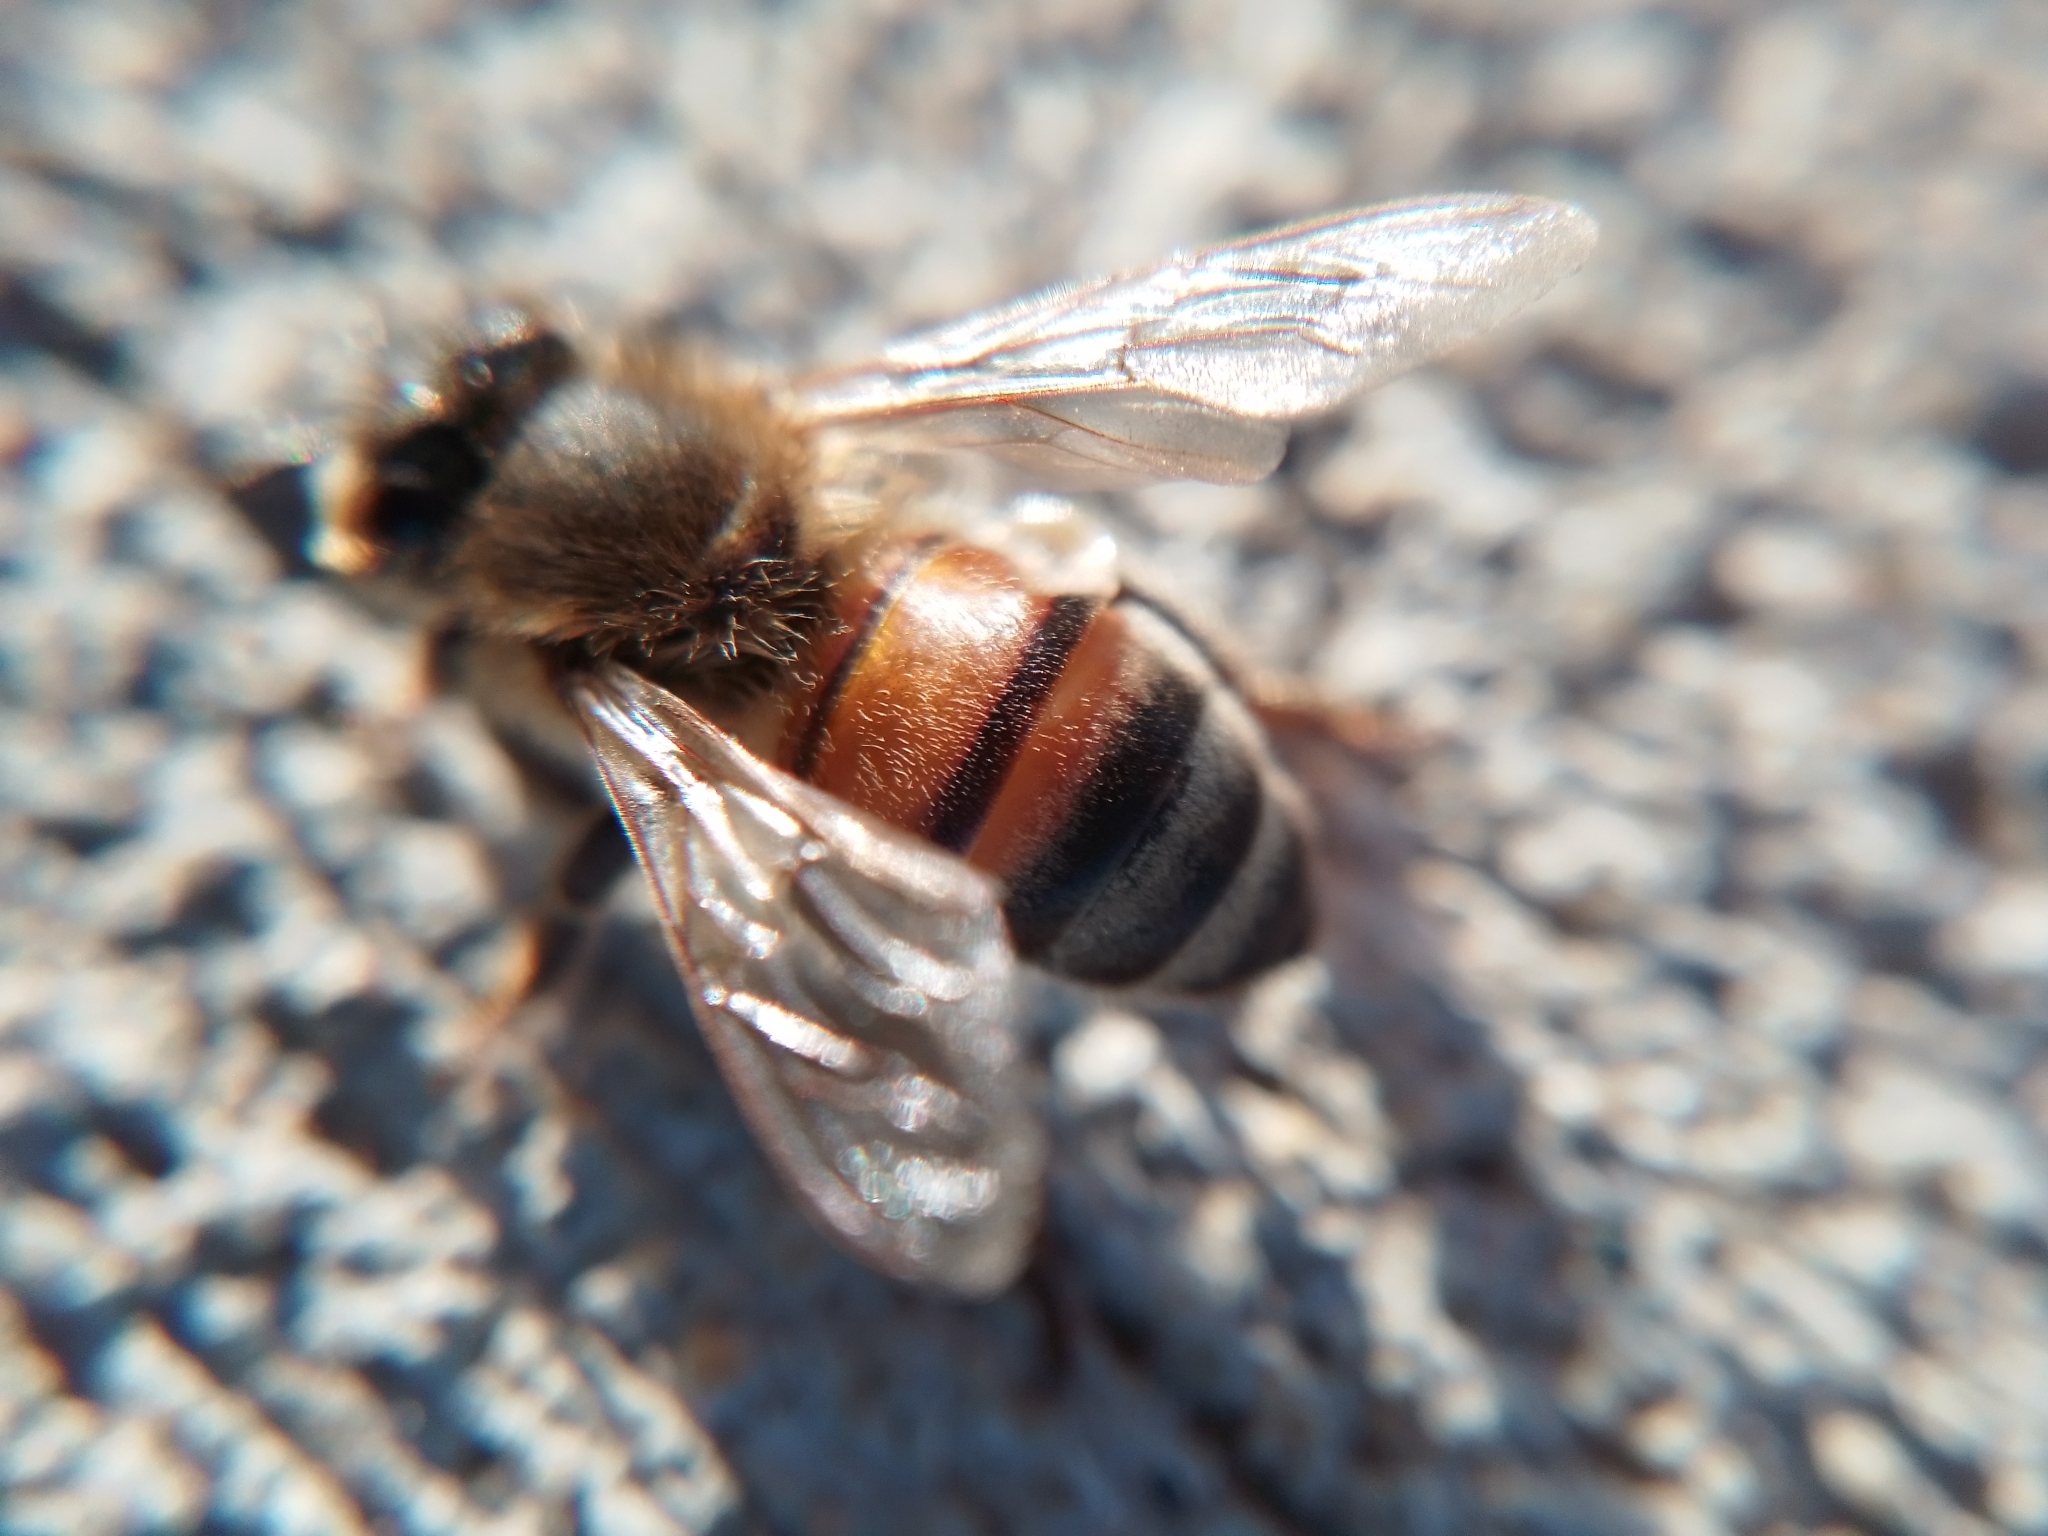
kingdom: Animalia
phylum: Arthropoda
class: Insecta
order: Hymenoptera
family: Apidae
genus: Apis
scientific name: Apis mellifera
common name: Honey bee
